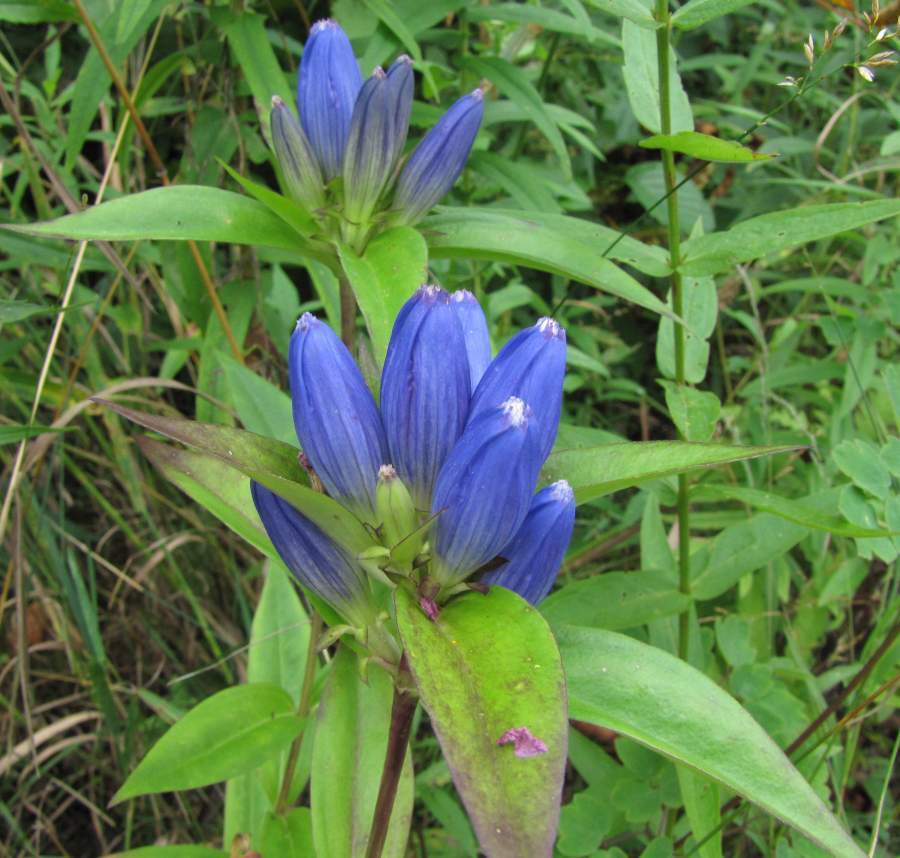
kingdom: Plantae
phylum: Tracheophyta
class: Magnoliopsida
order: Gentianales
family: Gentianaceae
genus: Gentiana
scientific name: Gentiana andrewsii
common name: Bottle gentian
